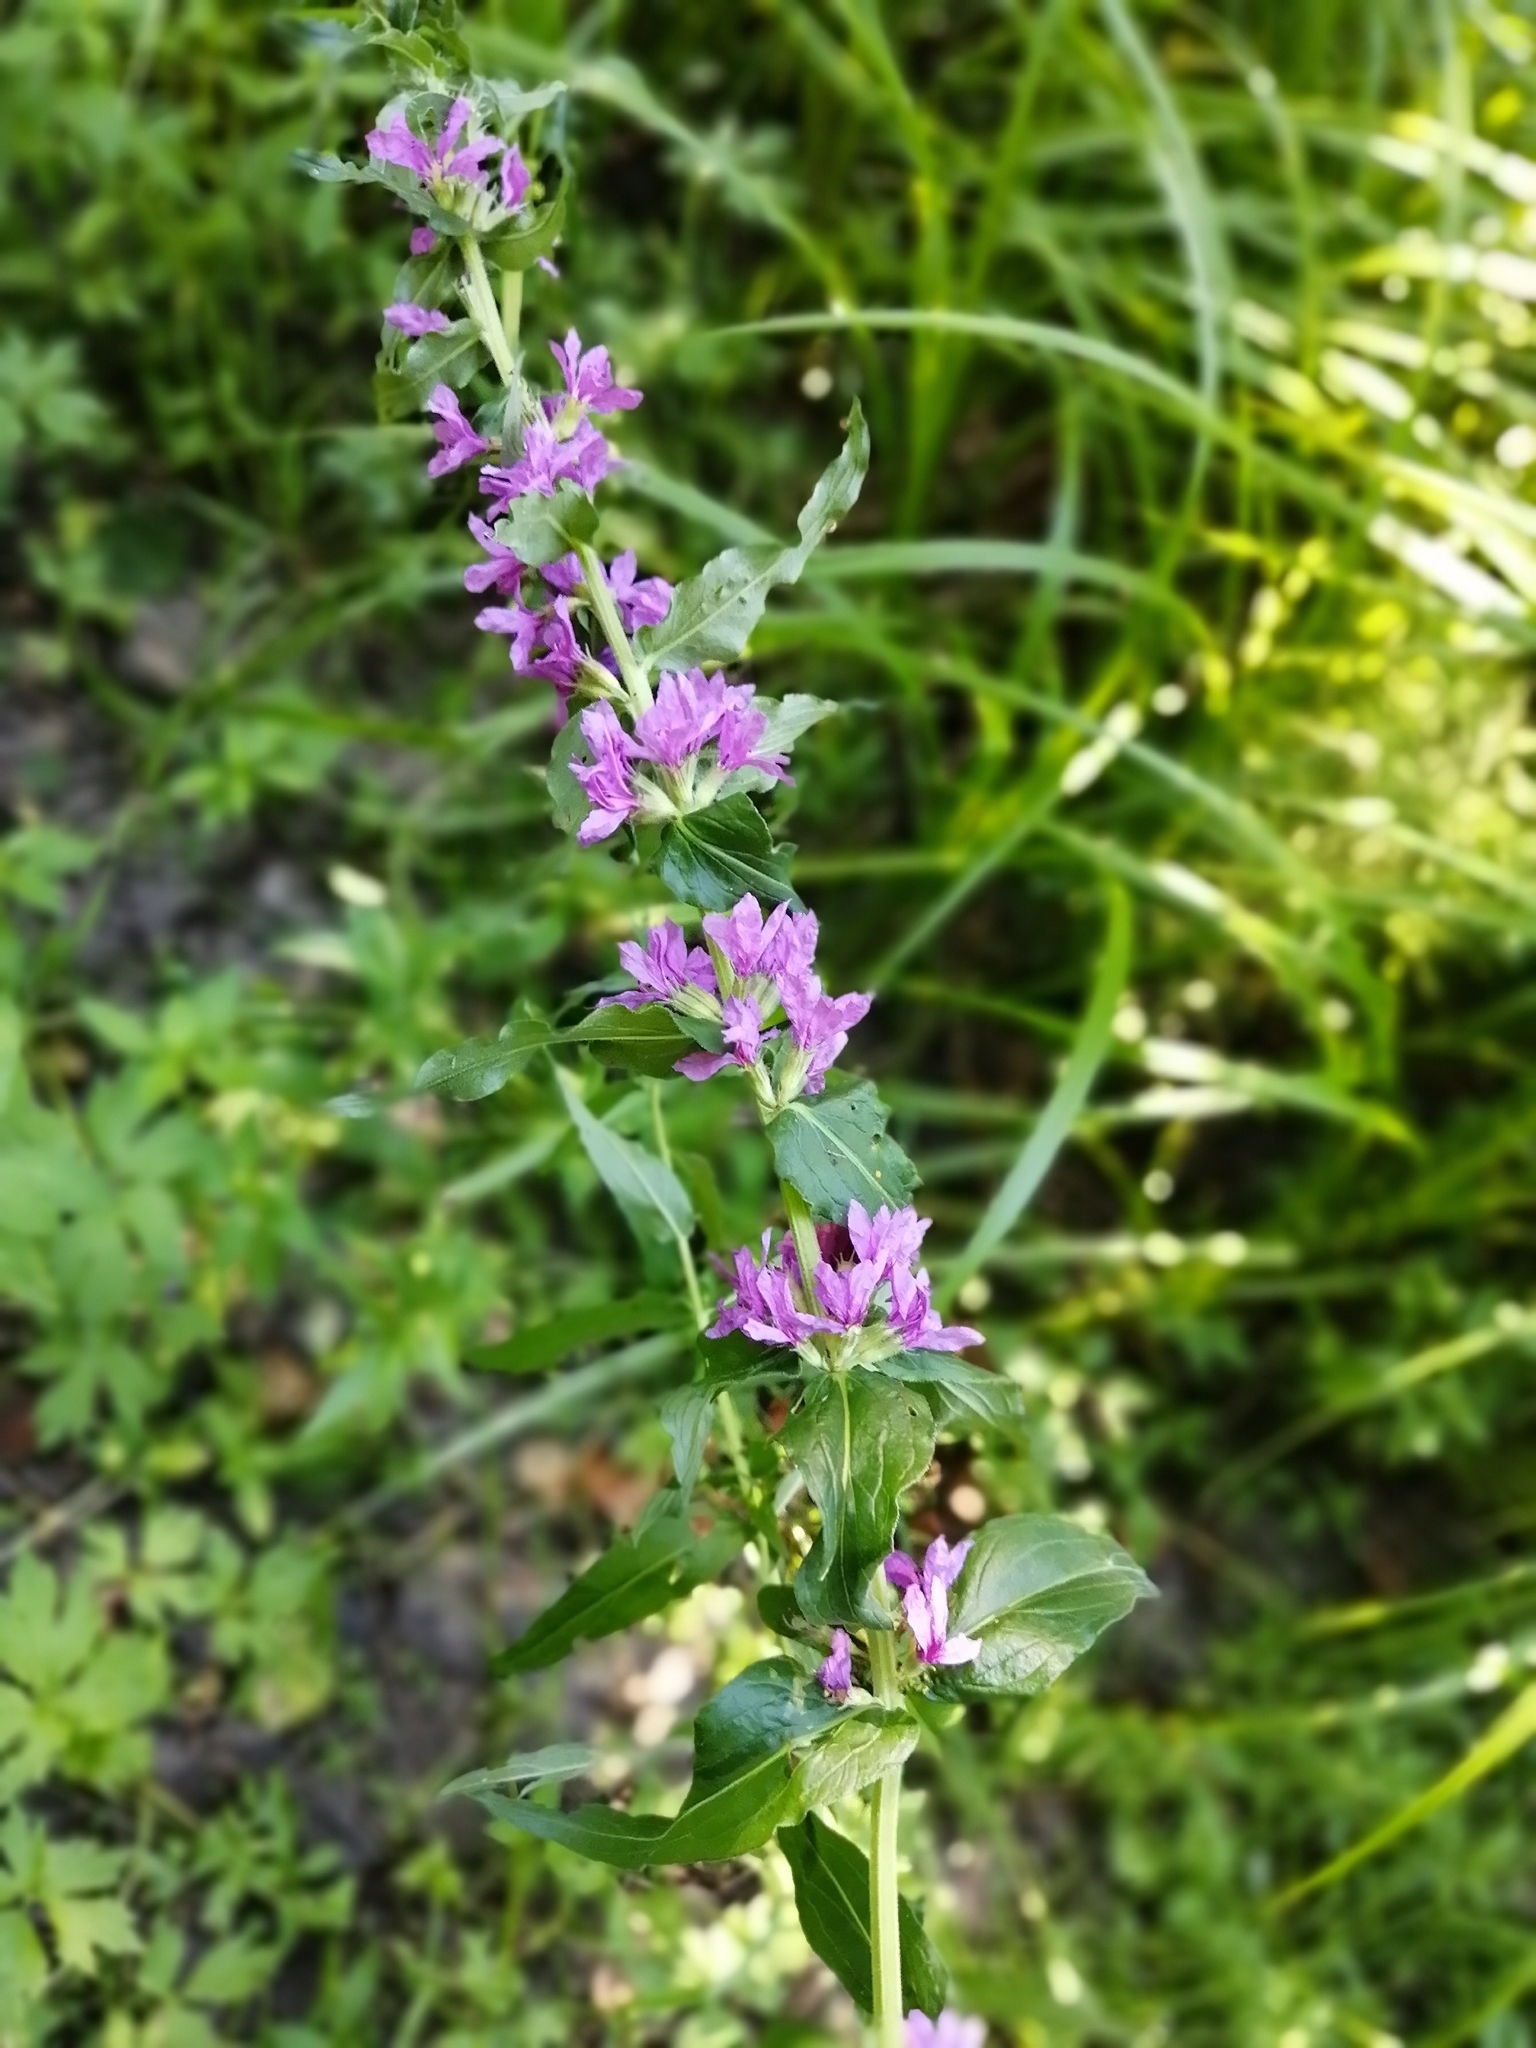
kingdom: Plantae
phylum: Tracheophyta
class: Magnoliopsida
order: Myrtales
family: Lythraceae
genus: Lythrum
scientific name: Lythrum salicaria
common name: Purple loosestrife
